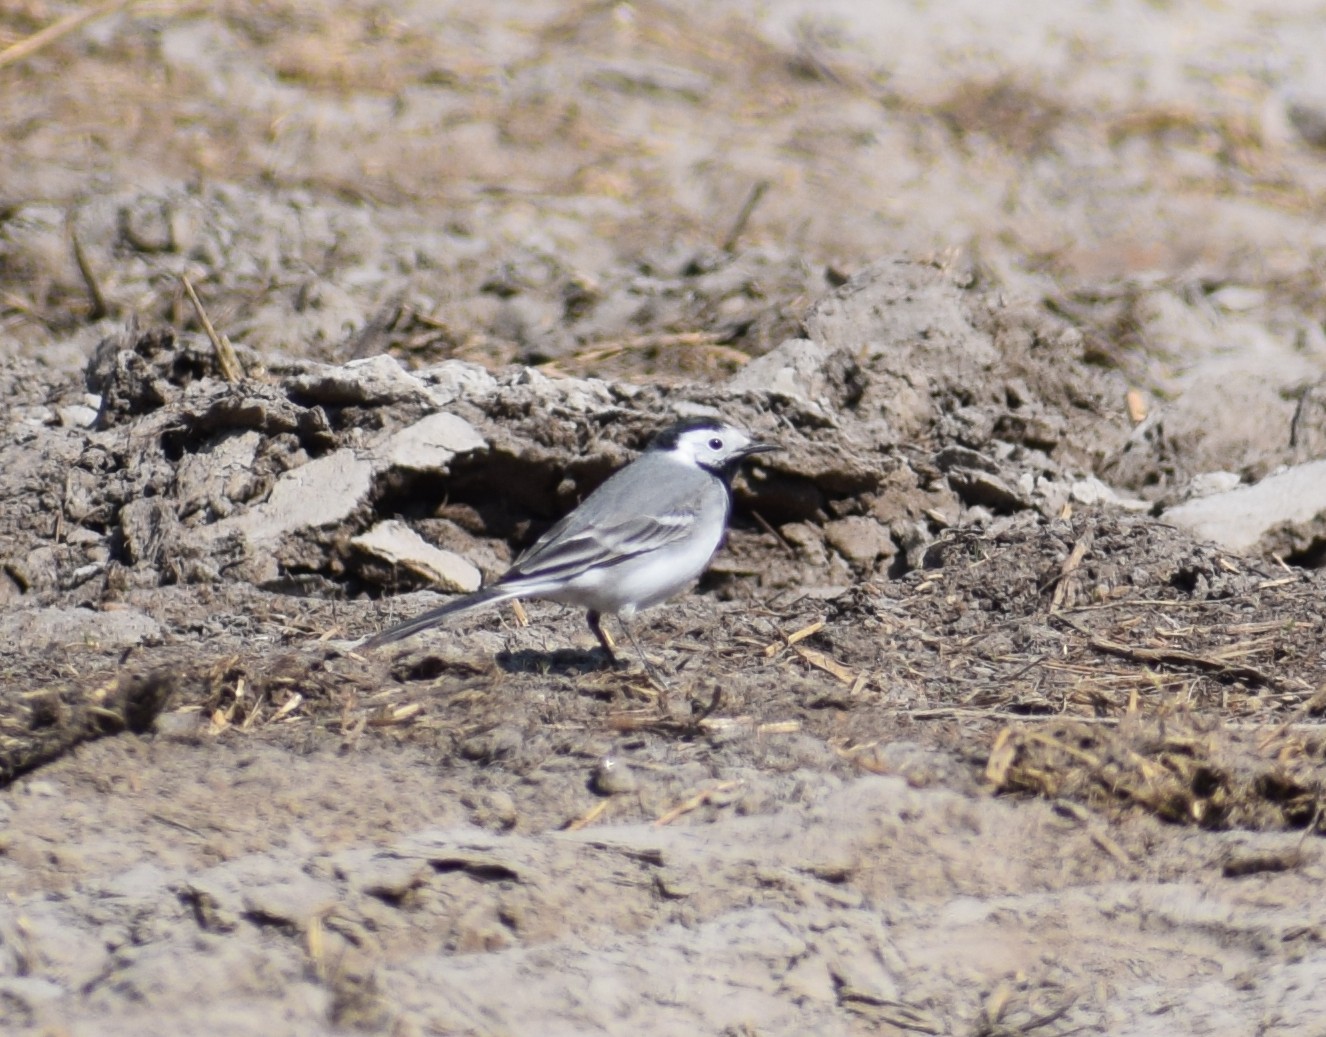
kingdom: Animalia
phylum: Chordata
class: Aves
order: Passeriformes
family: Motacillidae
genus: Motacilla
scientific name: Motacilla alba
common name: White wagtail
